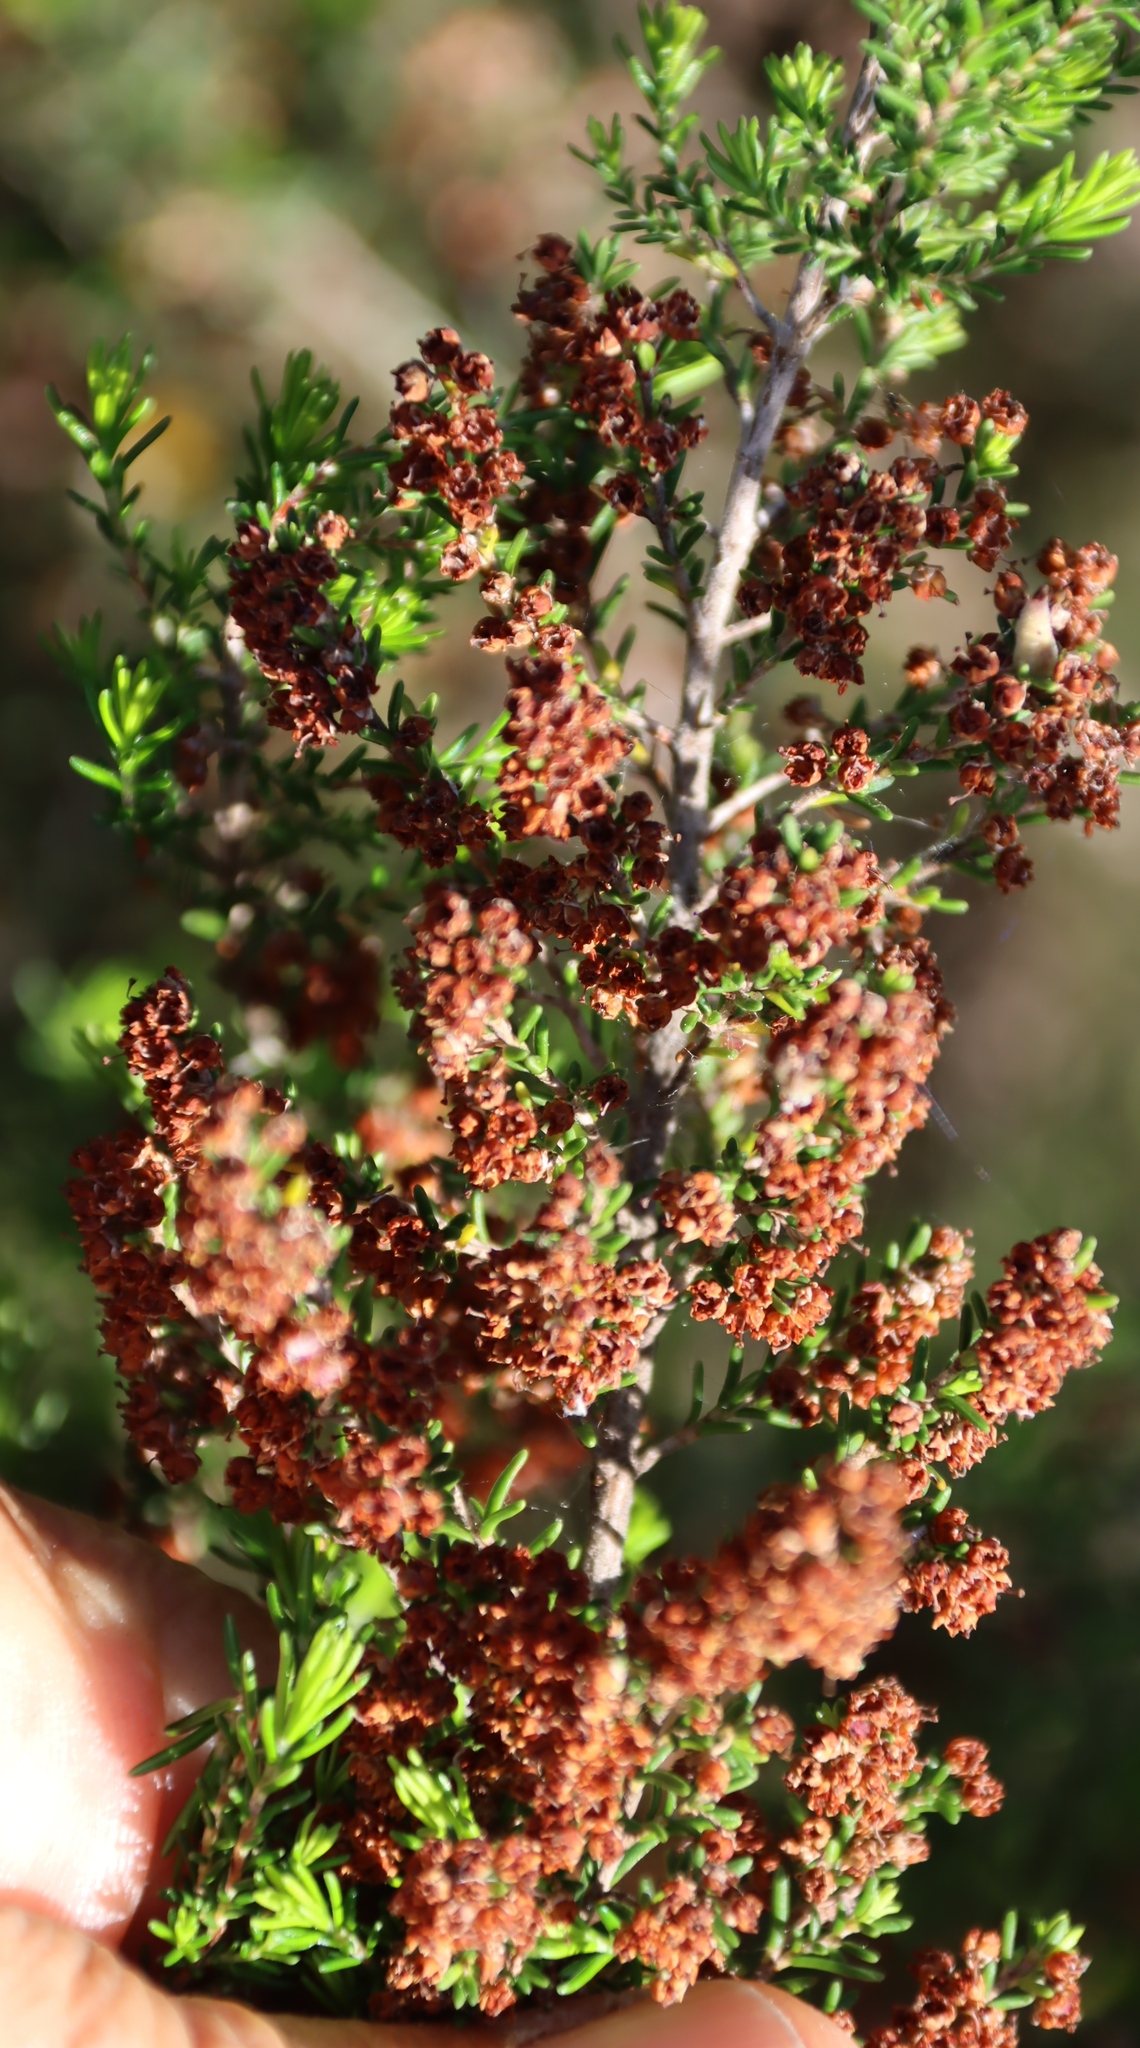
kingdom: Plantae
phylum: Tracheophyta
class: Magnoliopsida
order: Ericales
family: Ericaceae
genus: Erica
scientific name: Erica leucopelta
